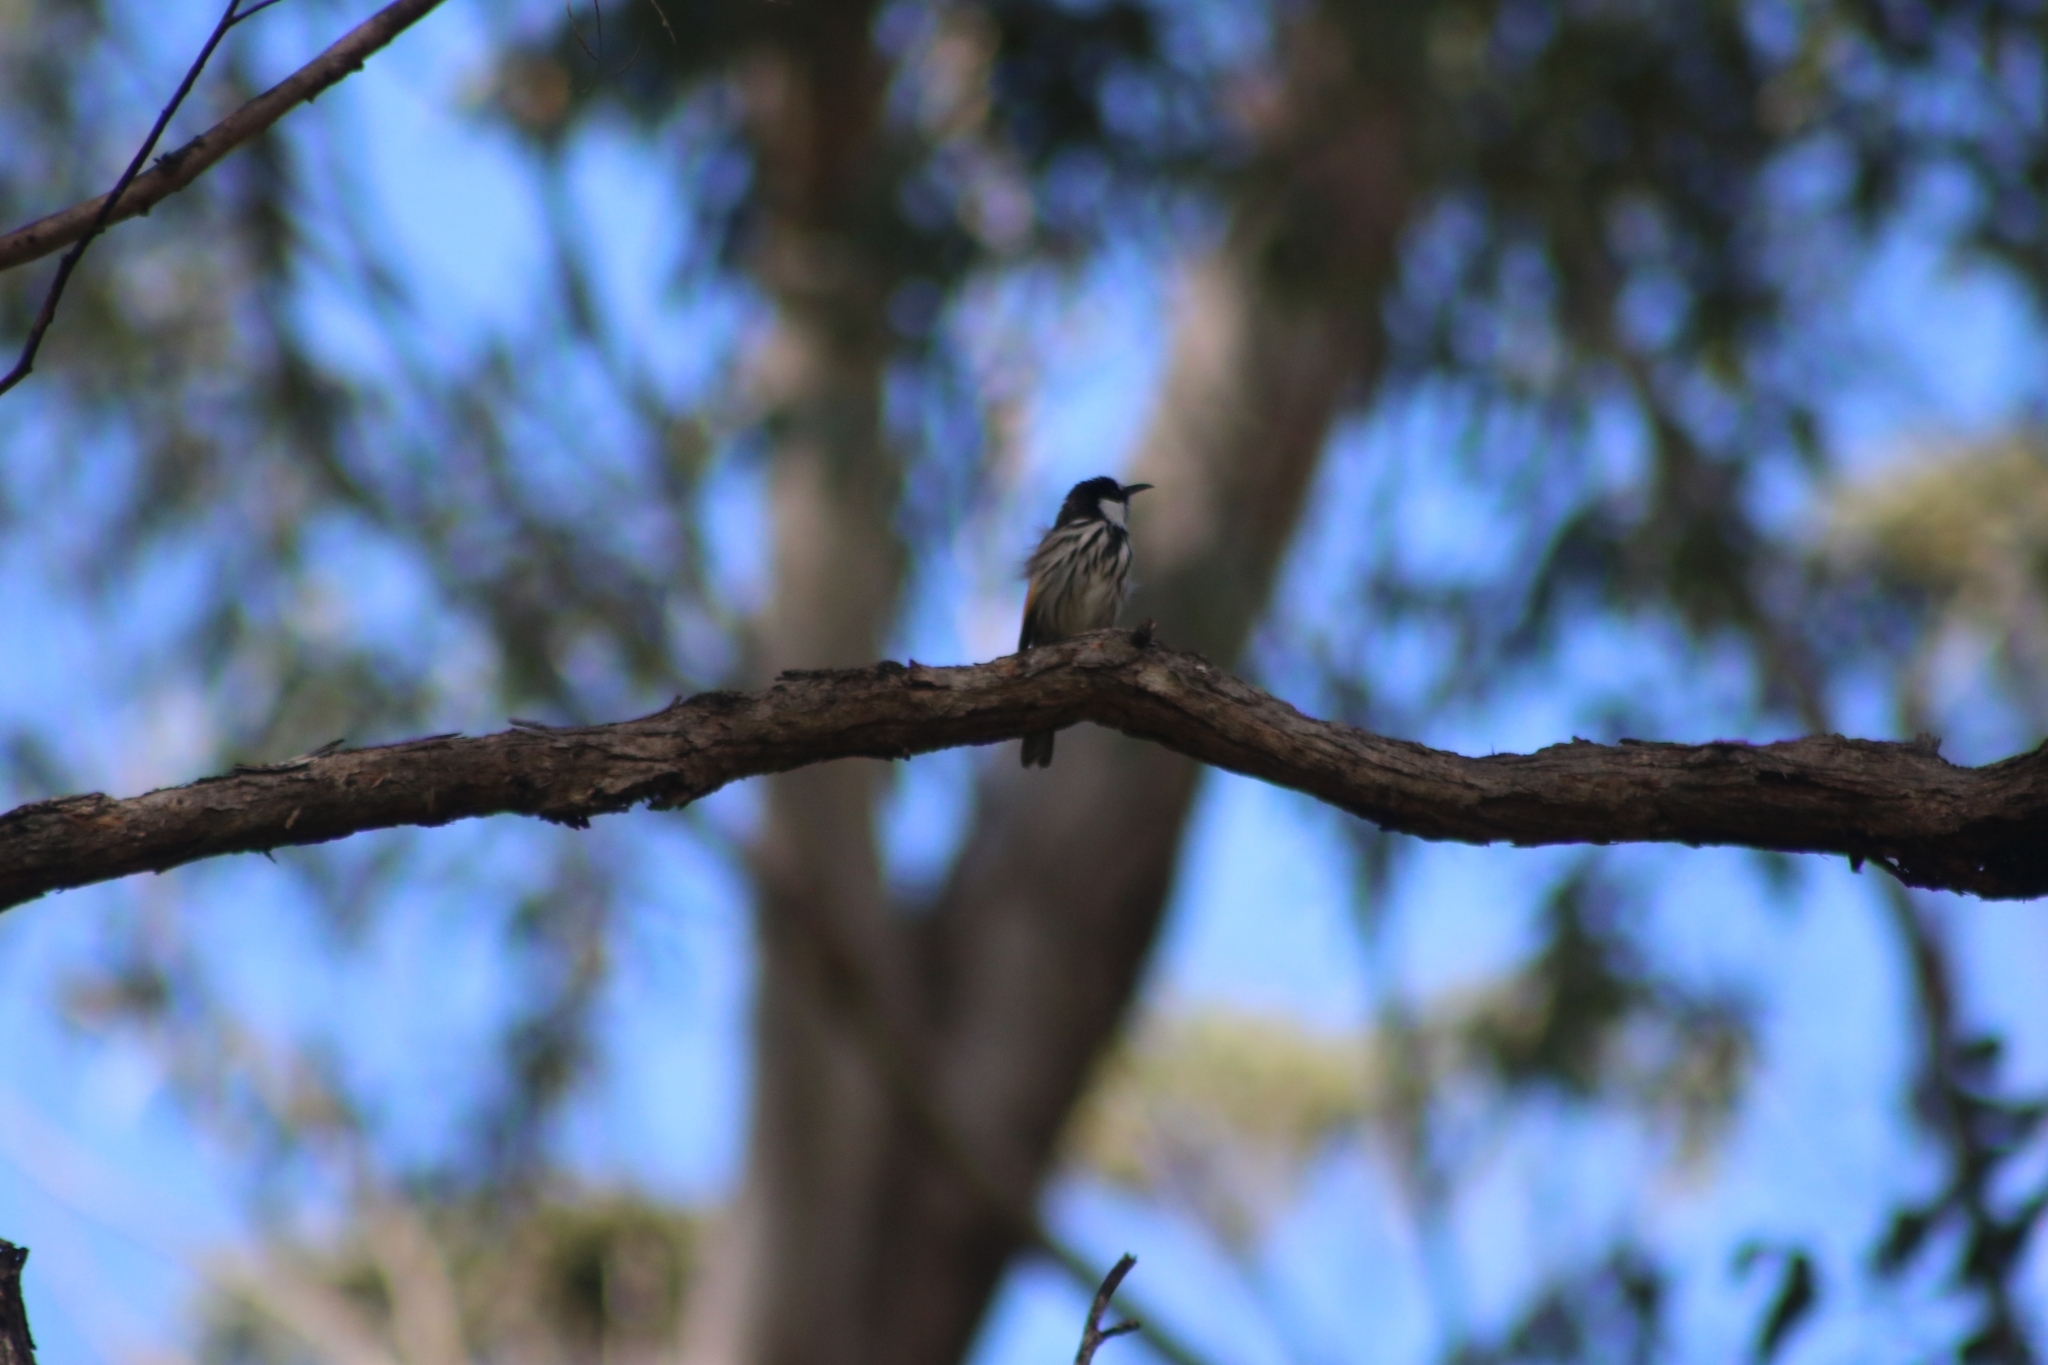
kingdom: Animalia
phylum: Chordata
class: Aves
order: Passeriformes
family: Meliphagidae
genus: Phylidonyris
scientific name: Phylidonyris niger
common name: White-cheeked honeyeater
